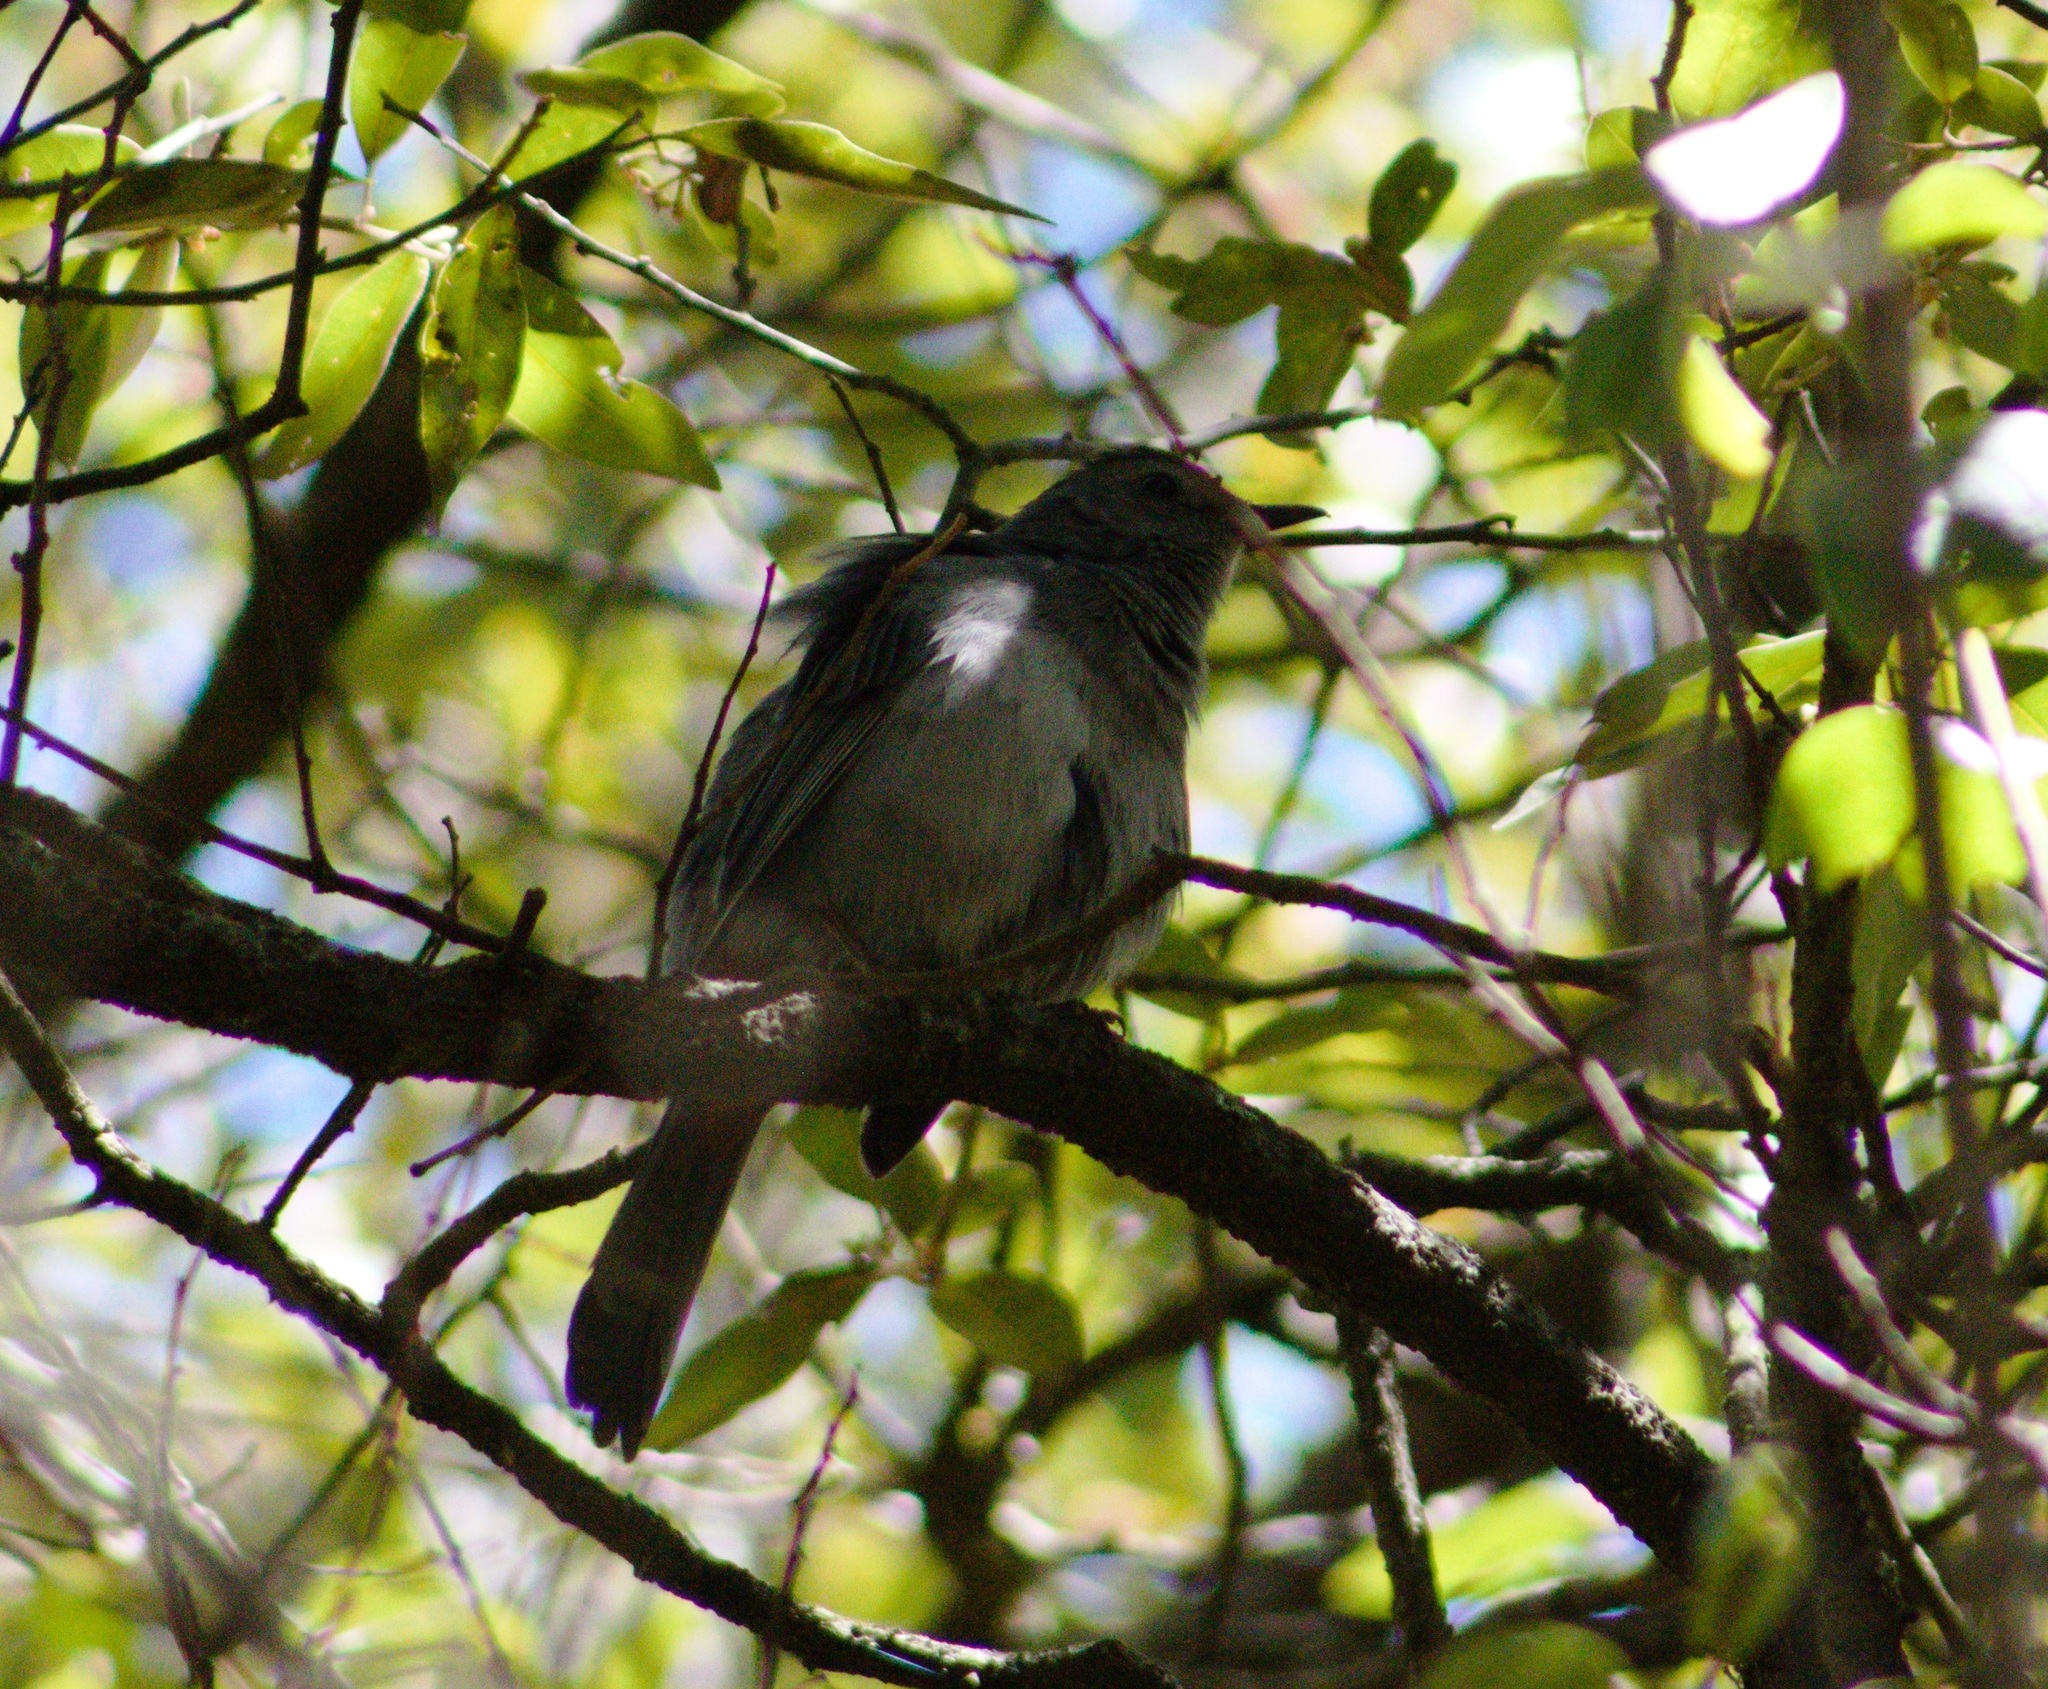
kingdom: Animalia
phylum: Chordata
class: Aves
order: Passeriformes
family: Mimidae
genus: Dumetella
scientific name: Dumetella carolinensis
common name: Gray catbird
